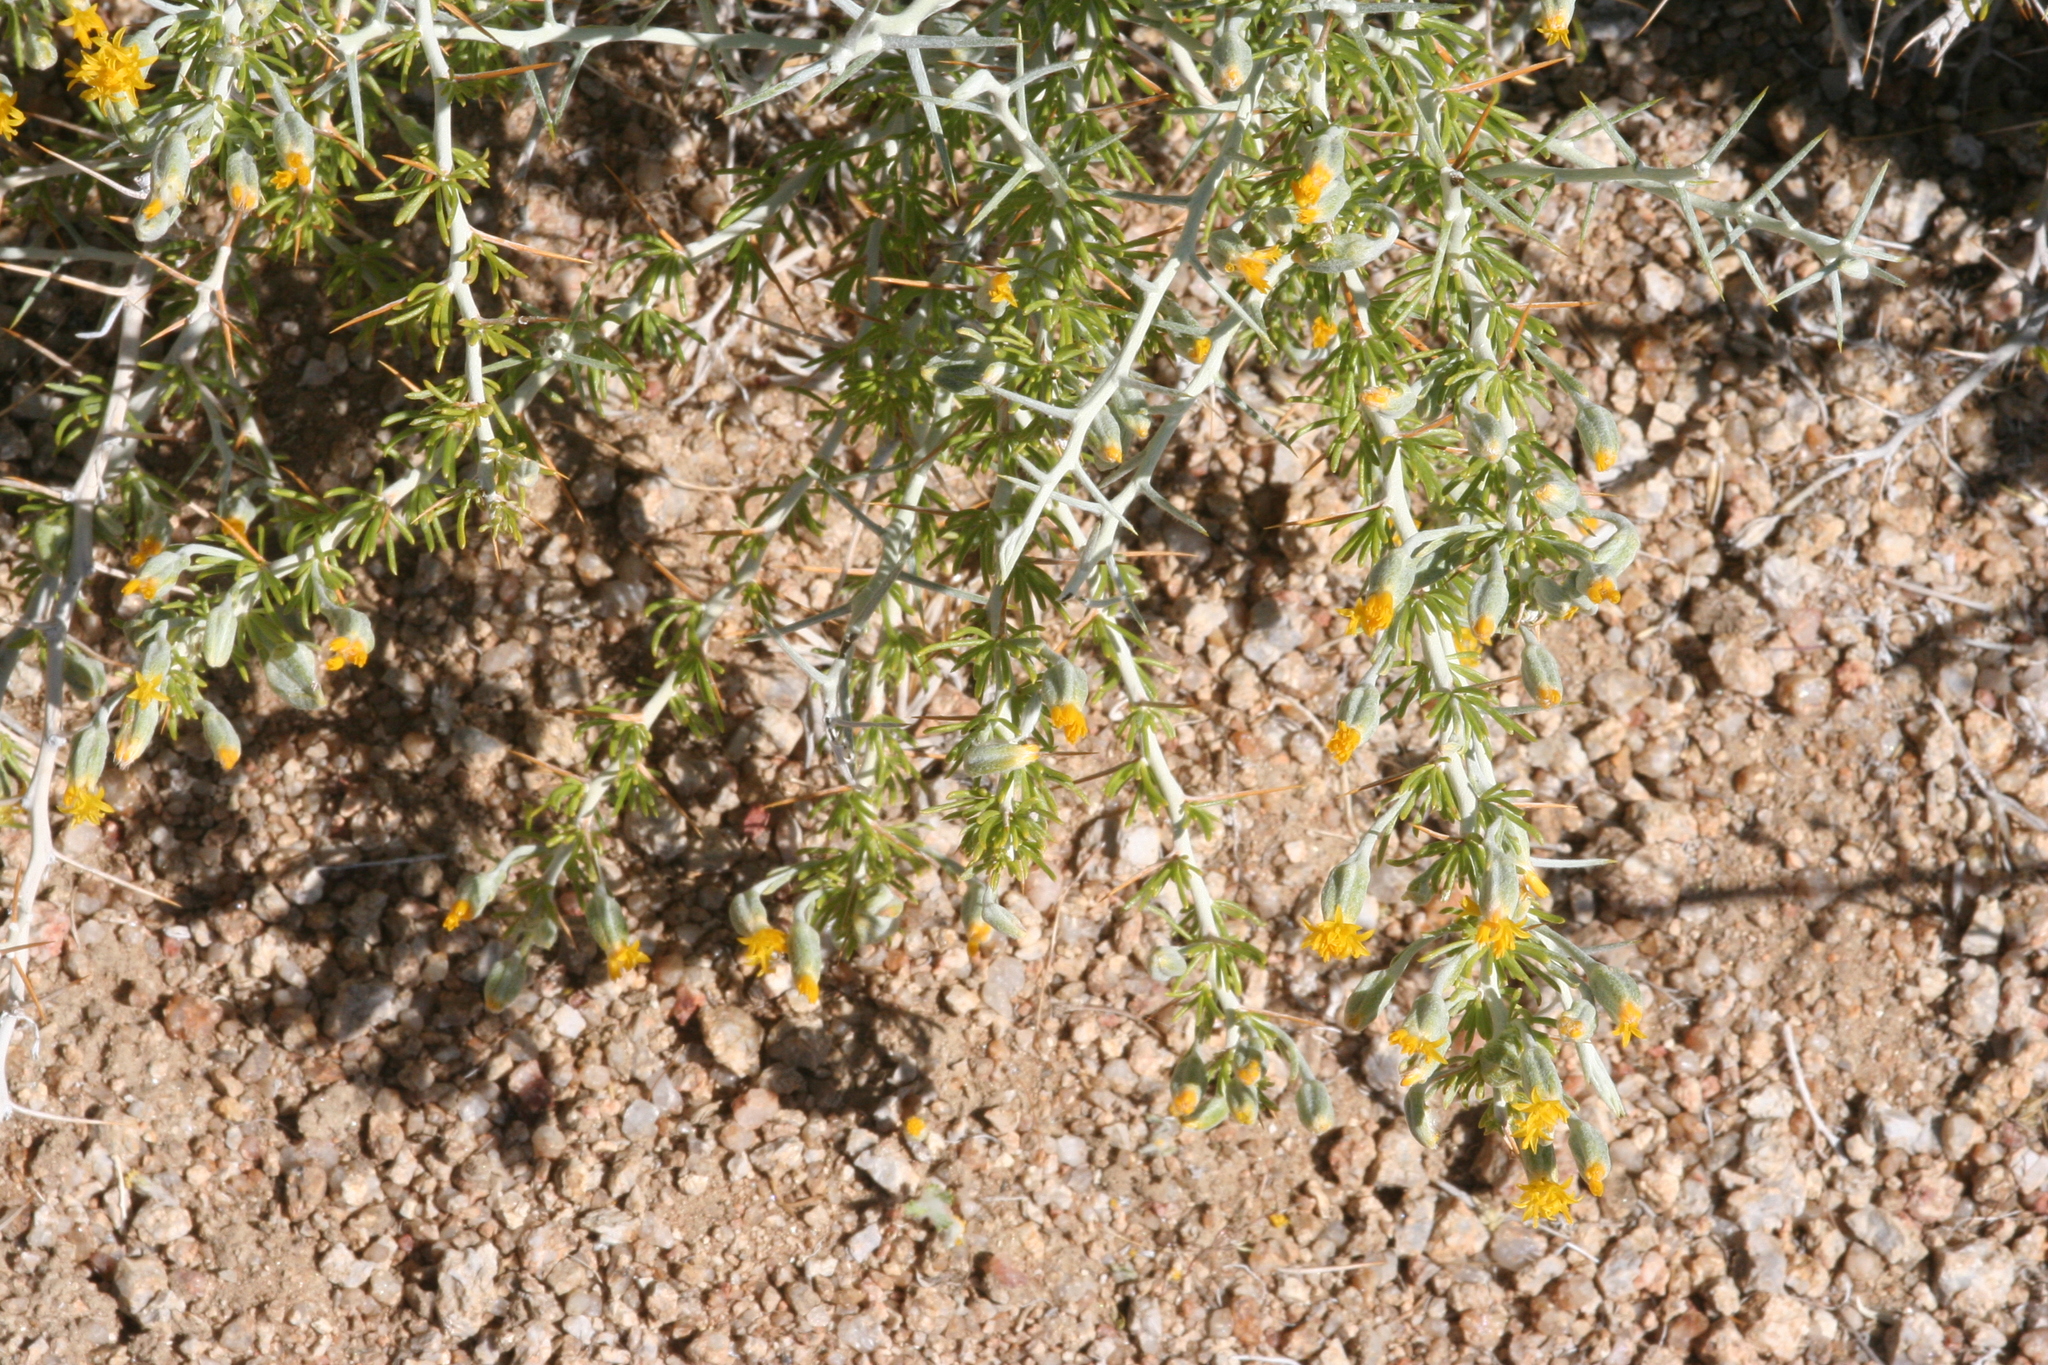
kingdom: Plantae
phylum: Tracheophyta
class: Magnoliopsida
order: Asterales
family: Asteraceae
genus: Tetradymia
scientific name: Tetradymia axillaris
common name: Long-spine horsebrush
